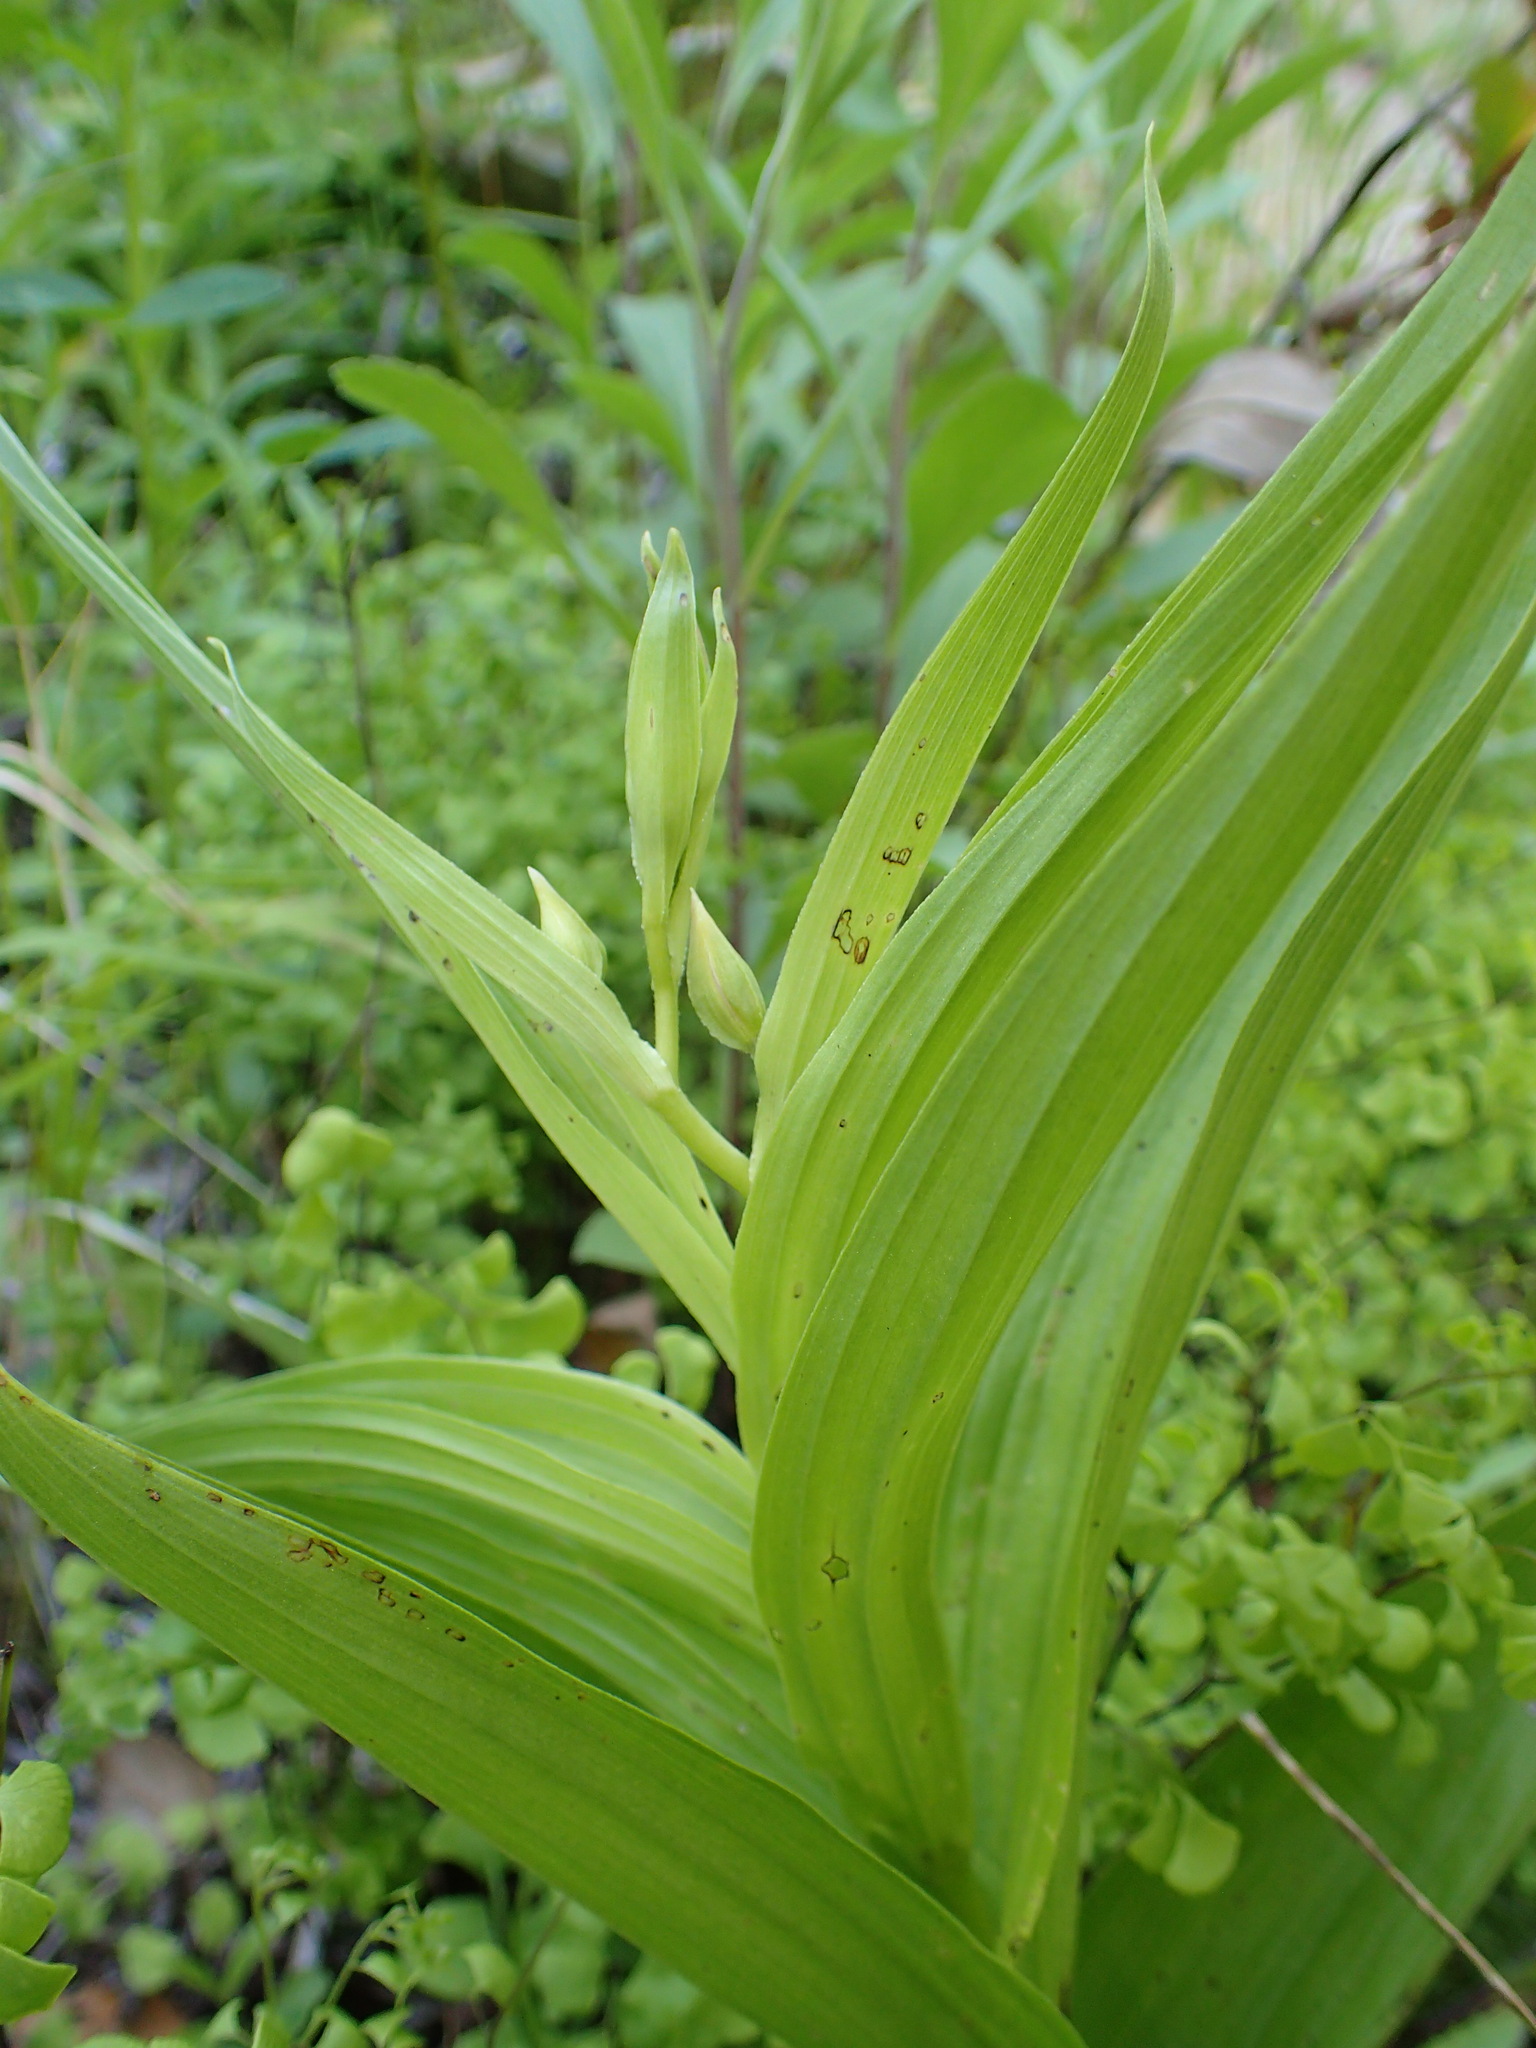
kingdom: Plantae
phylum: Tracheophyta
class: Liliopsida
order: Asparagales
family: Orchidaceae
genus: Epipactis
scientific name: Epipactis gigantea
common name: Chatterbox
